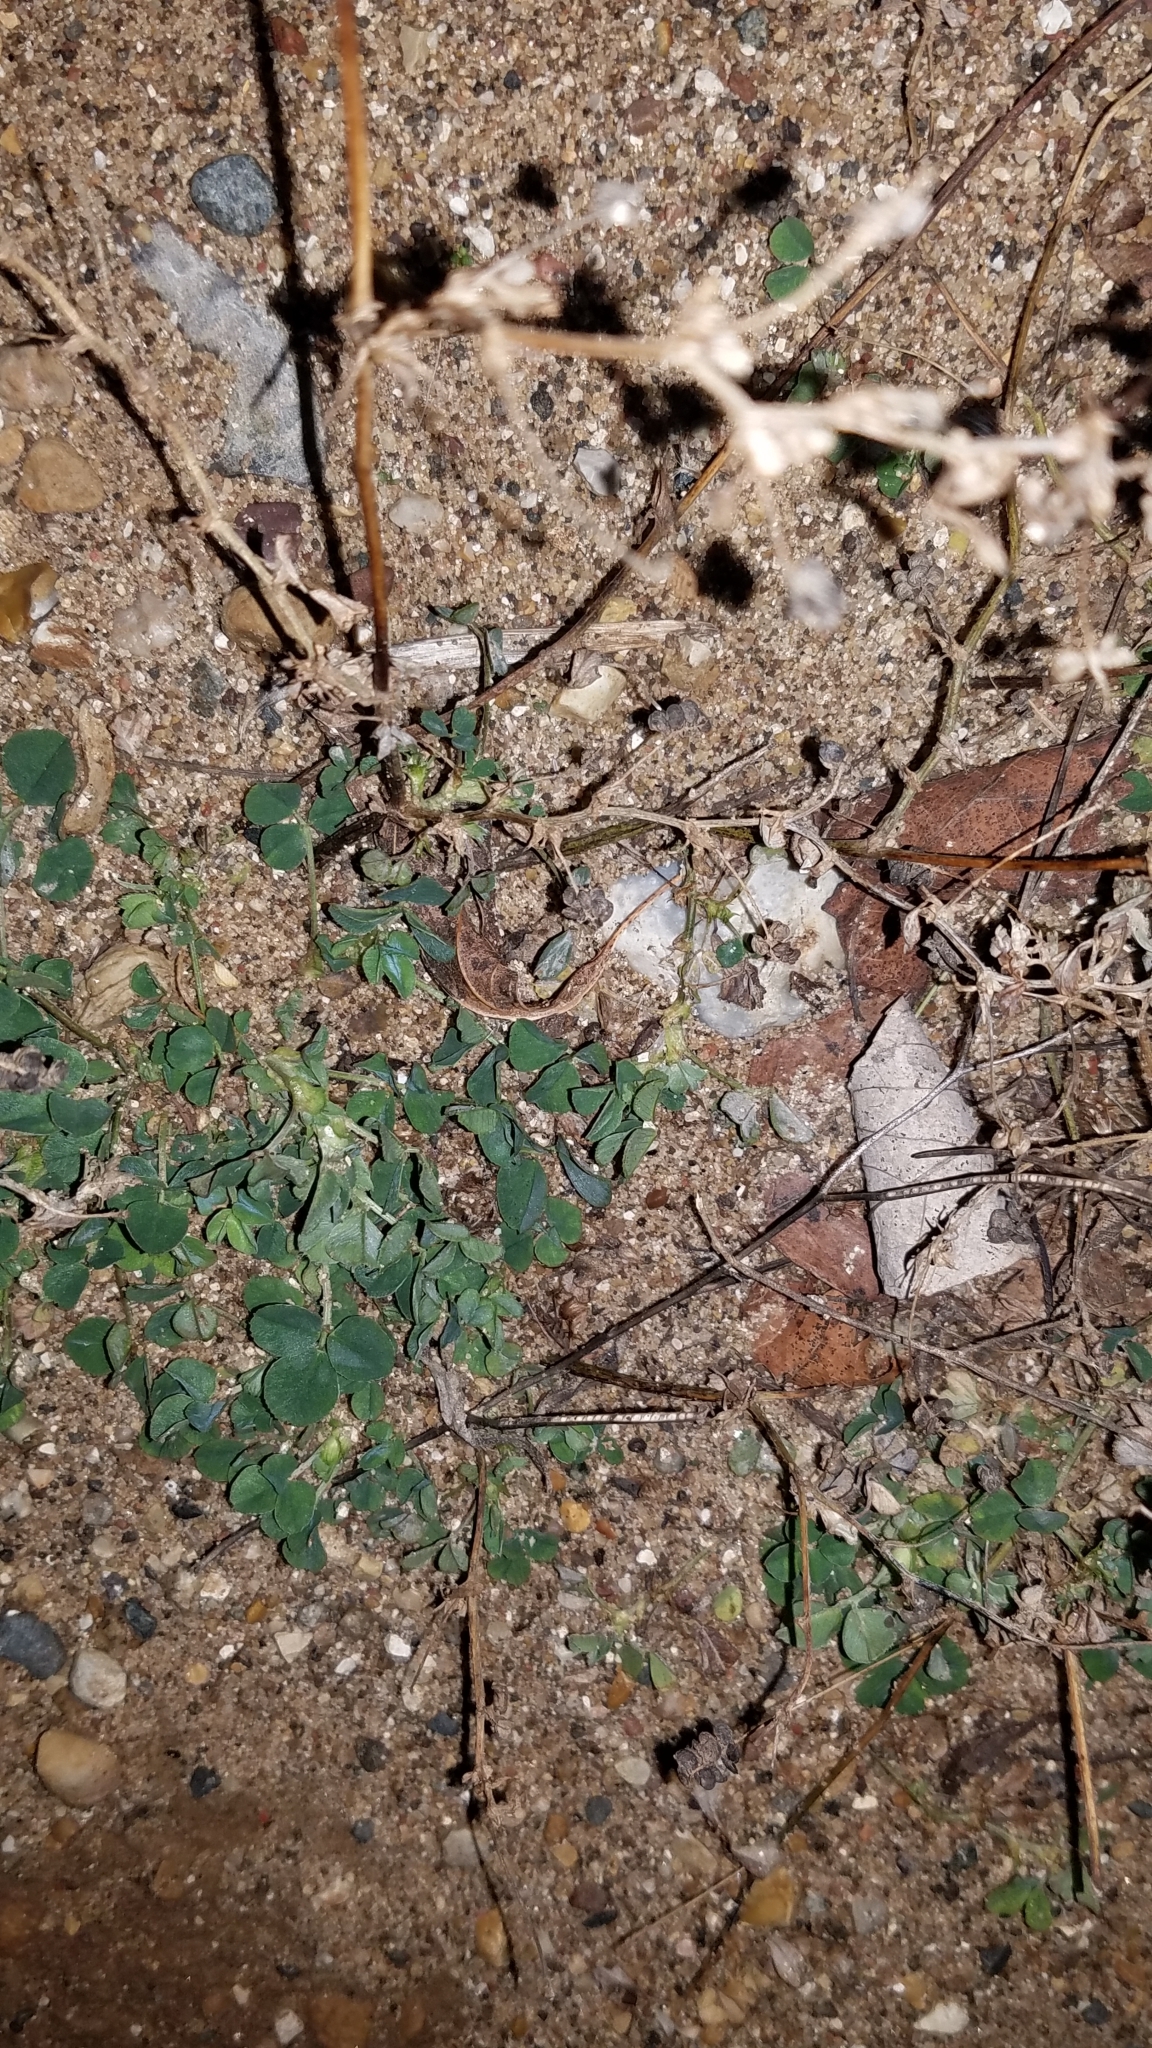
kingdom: Plantae
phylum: Tracheophyta
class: Magnoliopsida
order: Fabales
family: Fabaceae
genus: Medicago
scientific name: Medicago lupulina
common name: Black medick
